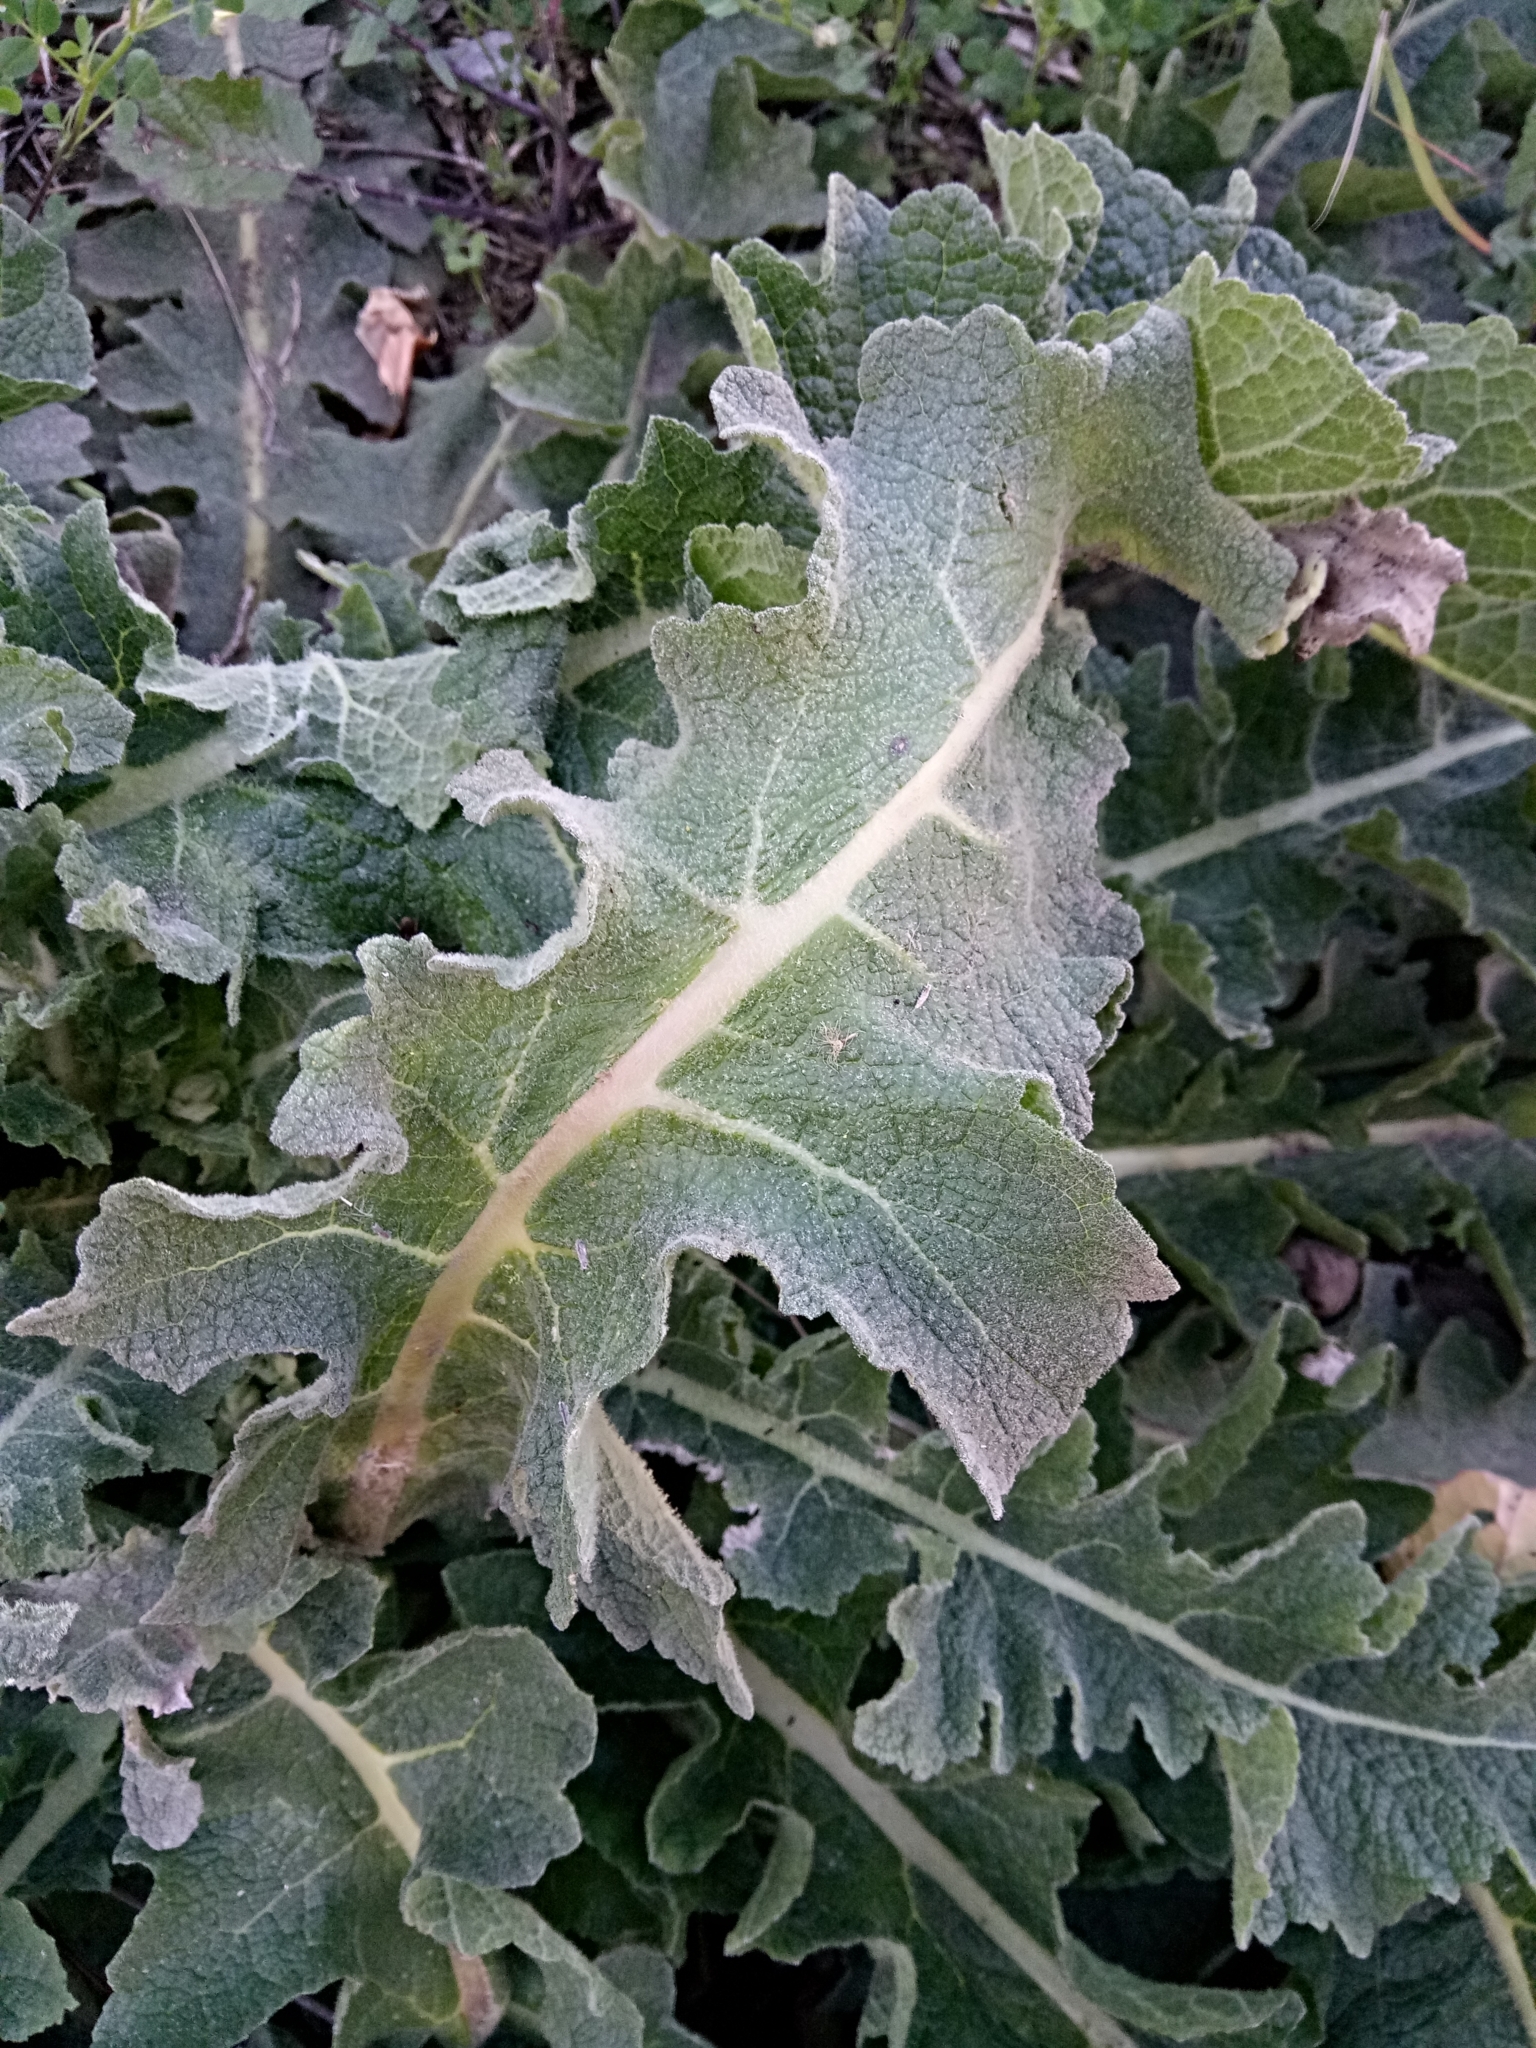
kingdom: Plantae
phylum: Tracheophyta
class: Magnoliopsida
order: Lamiales
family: Scrophulariaceae
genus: Verbascum
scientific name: Verbascum sinuatum
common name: Wavyleaf mullein
